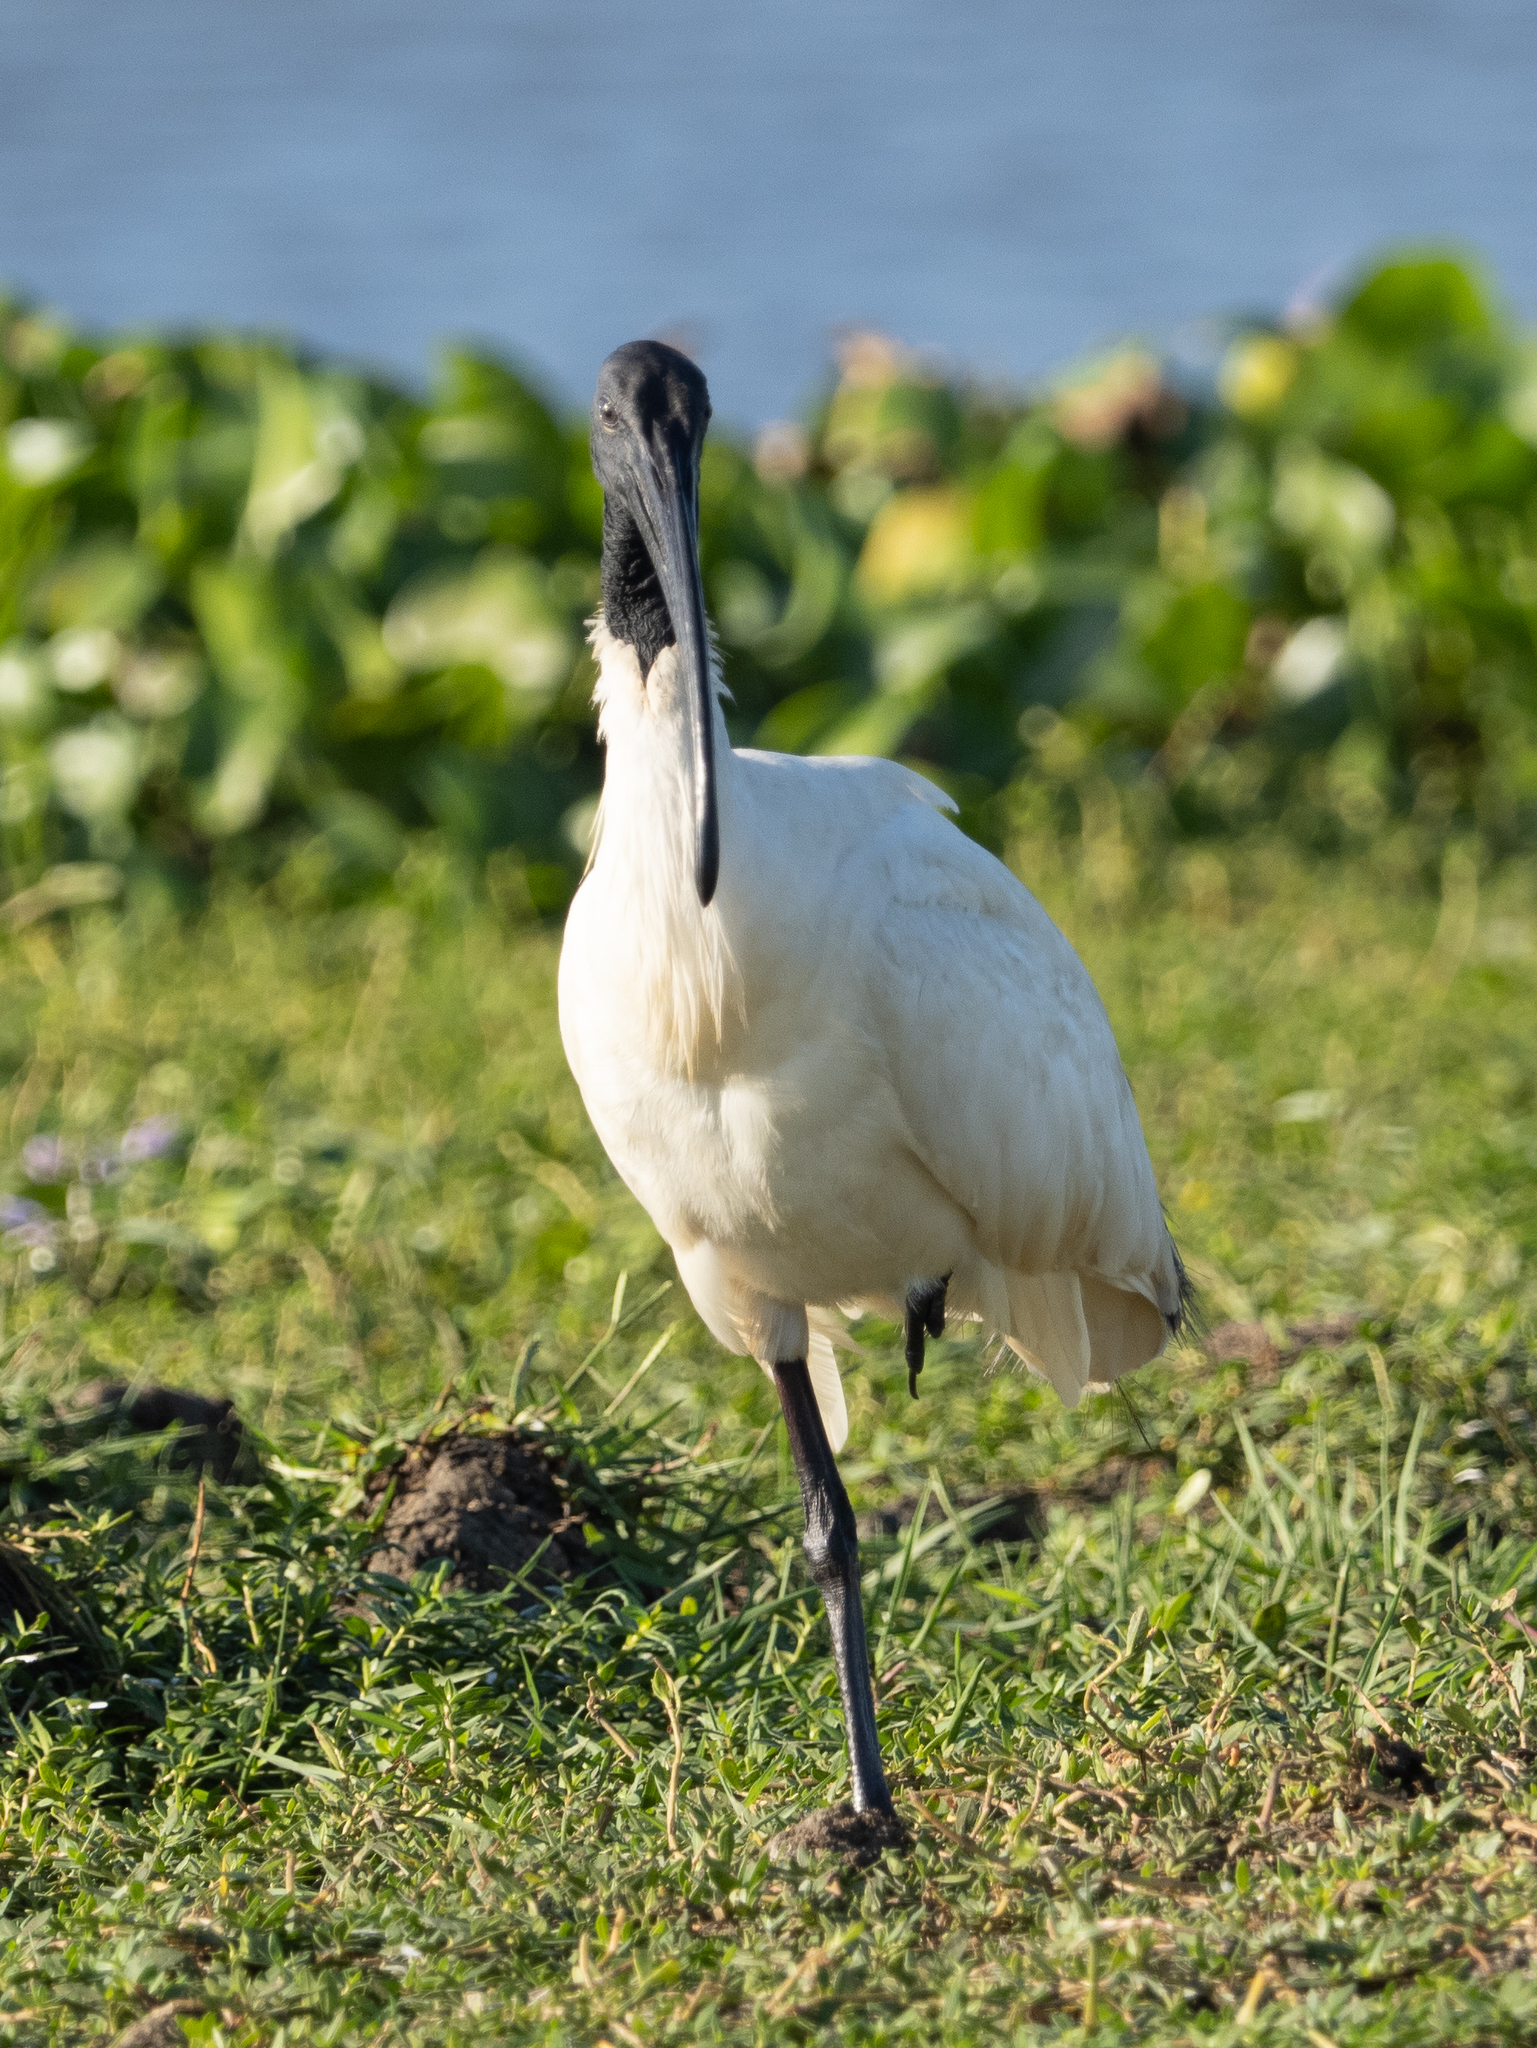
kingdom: Animalia
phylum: Chordata
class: Aves
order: Pelecaniformes
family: Threskiornithidae
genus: Threskiornis
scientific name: Threskiornis melanocephalus
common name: Black-headed ibis
